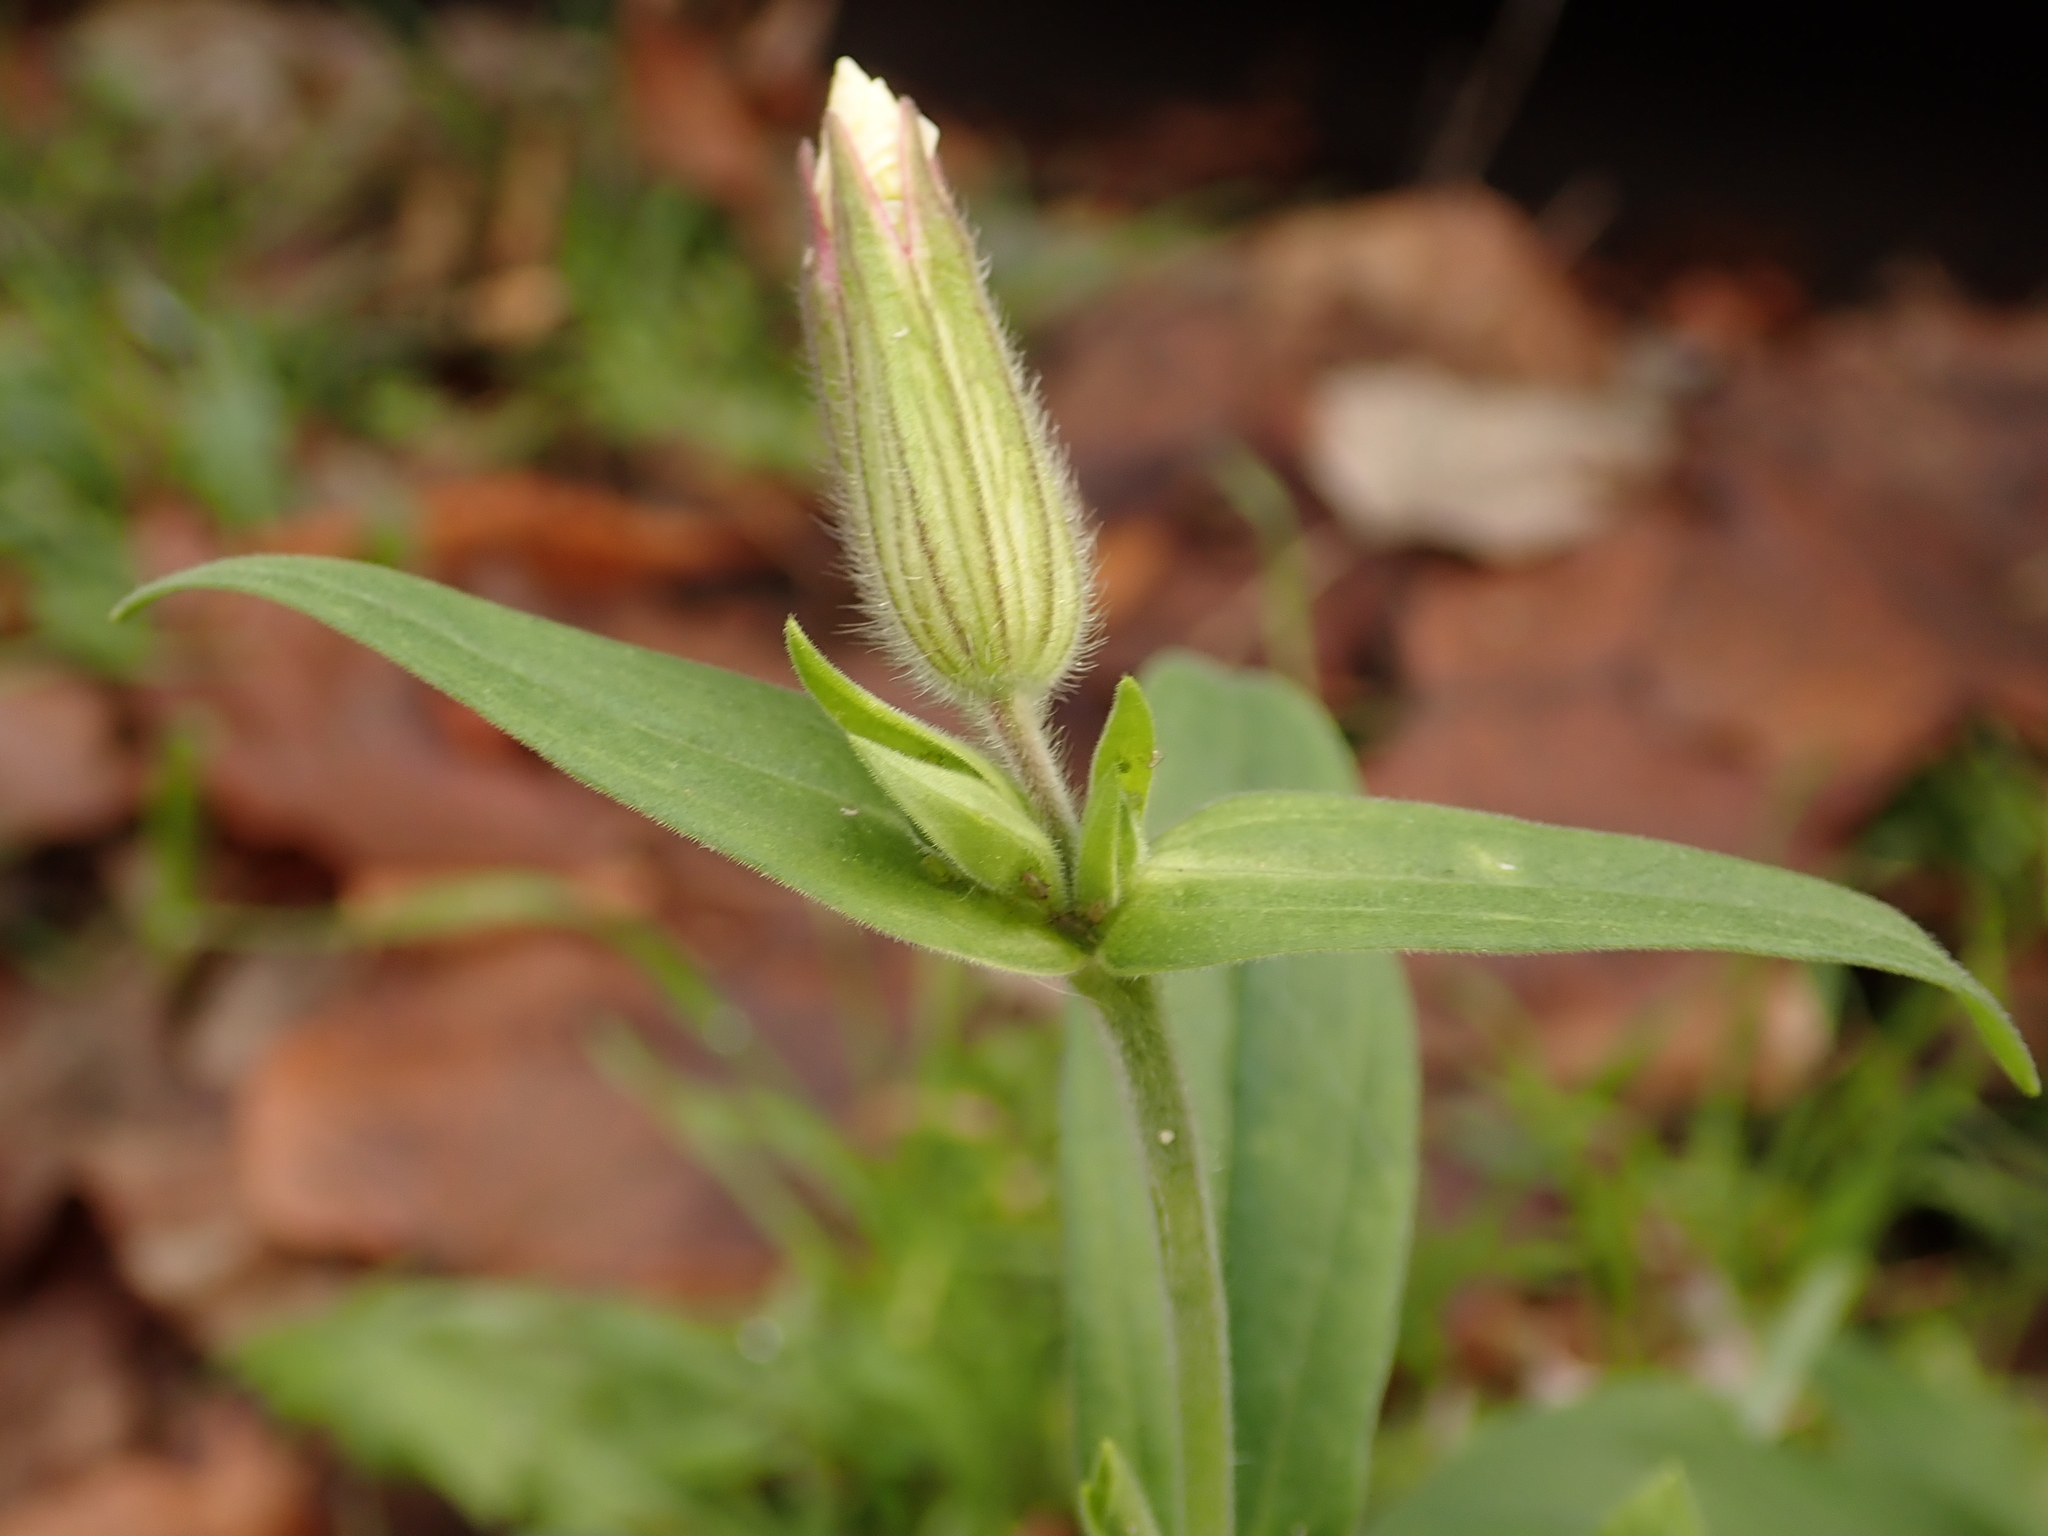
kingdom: Plantae
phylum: Tracheophyta
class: Magnoliopsida
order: Caryophyllales
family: Caryophyllaceae
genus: Silene
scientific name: Silene latifolia
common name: White campion
